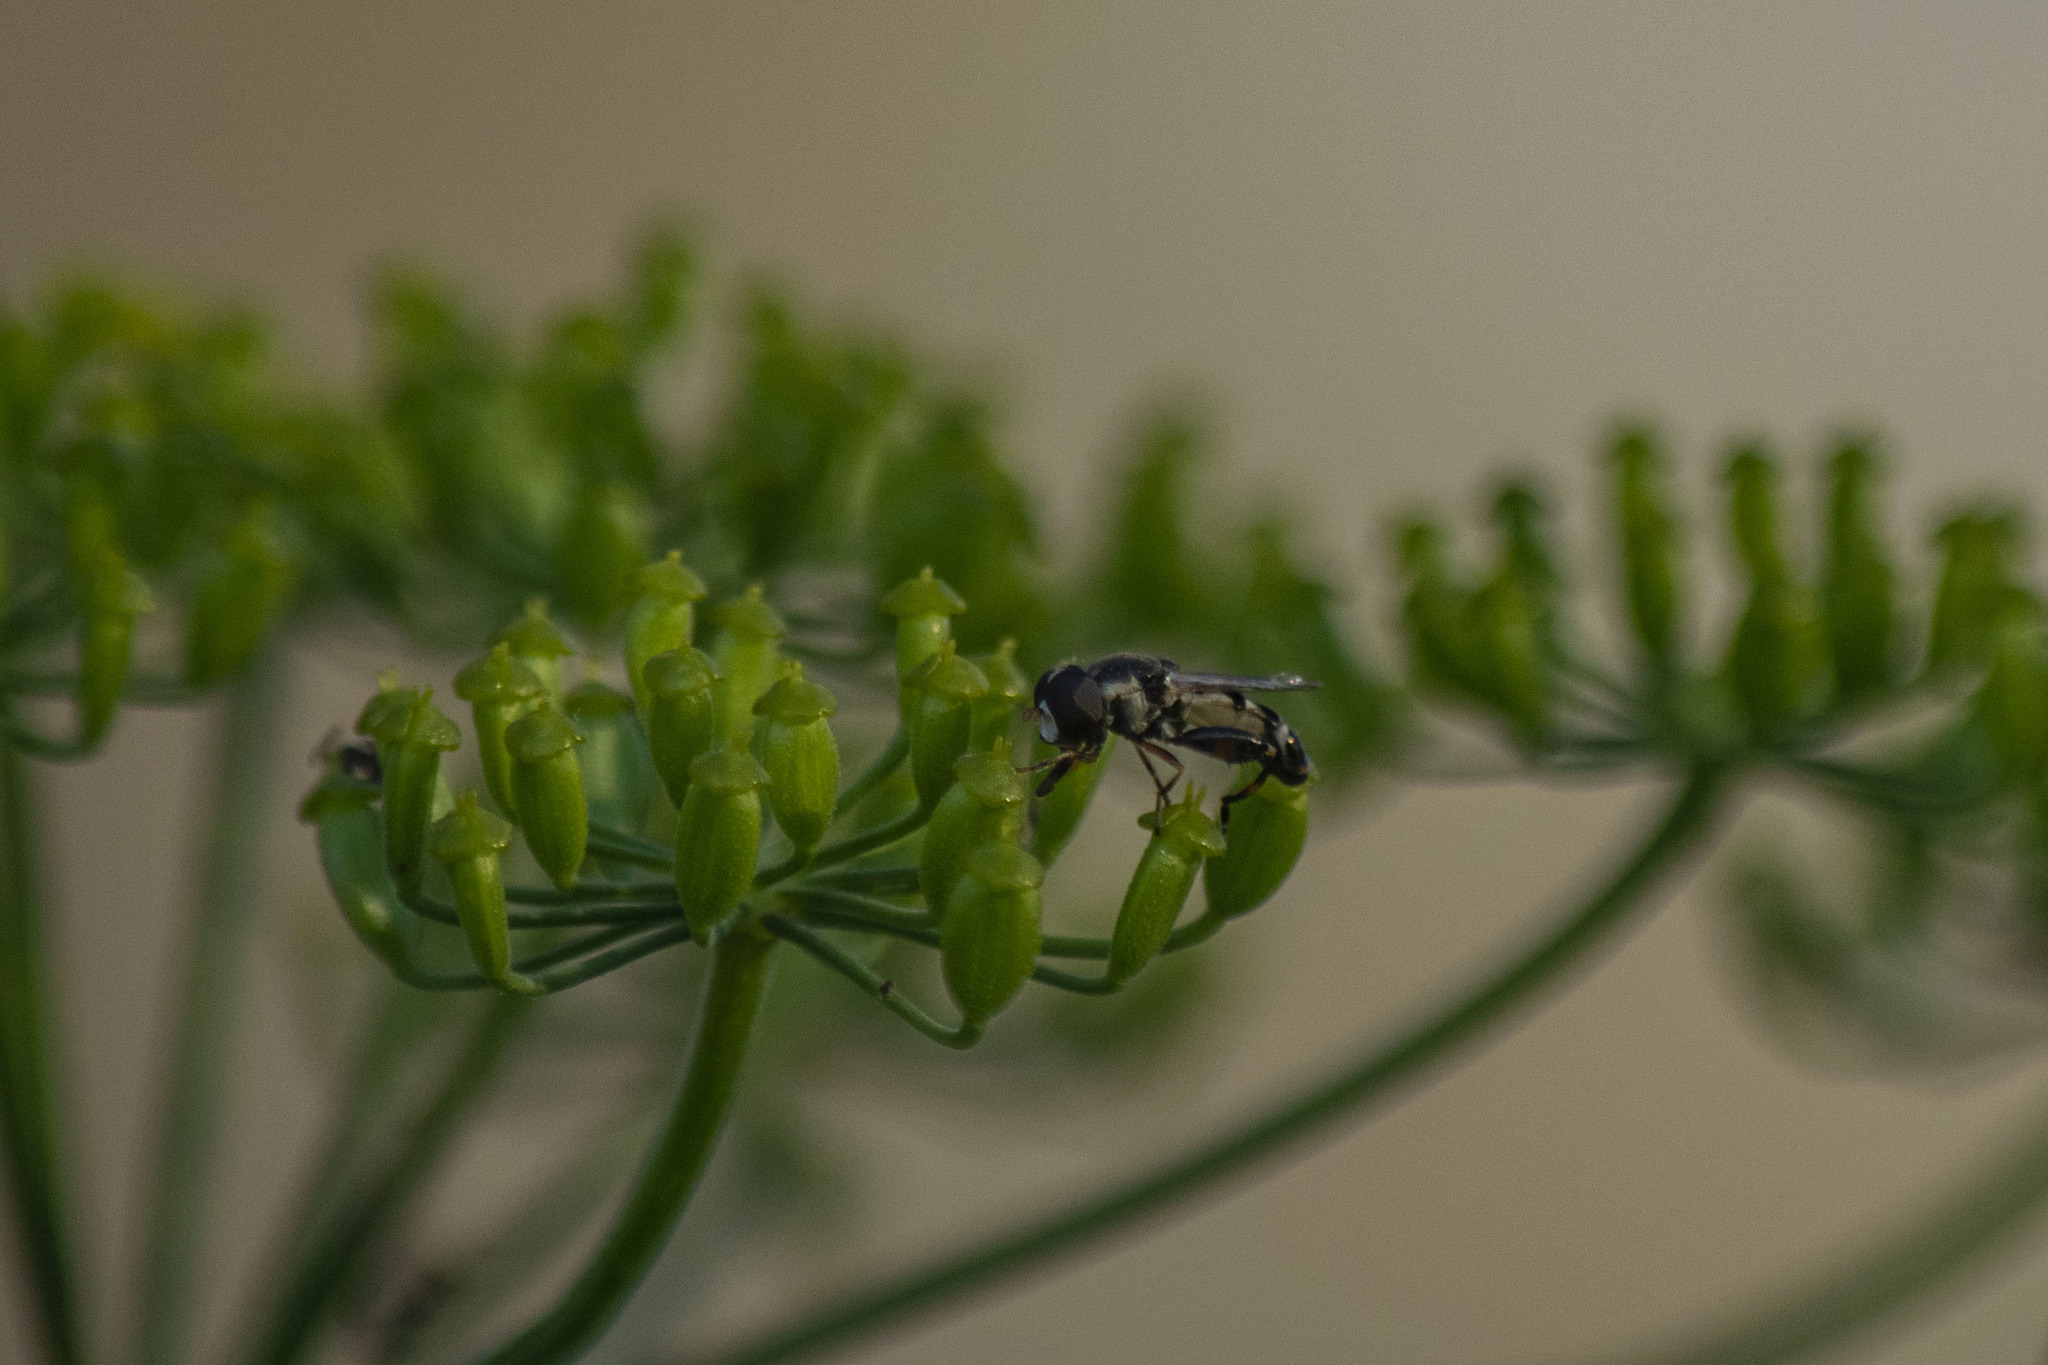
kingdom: Animalia
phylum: Arthropoda
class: Insecta
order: Diptera
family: Syrphidae
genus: Syritta
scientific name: Syritta pipiens
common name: Hover fly
